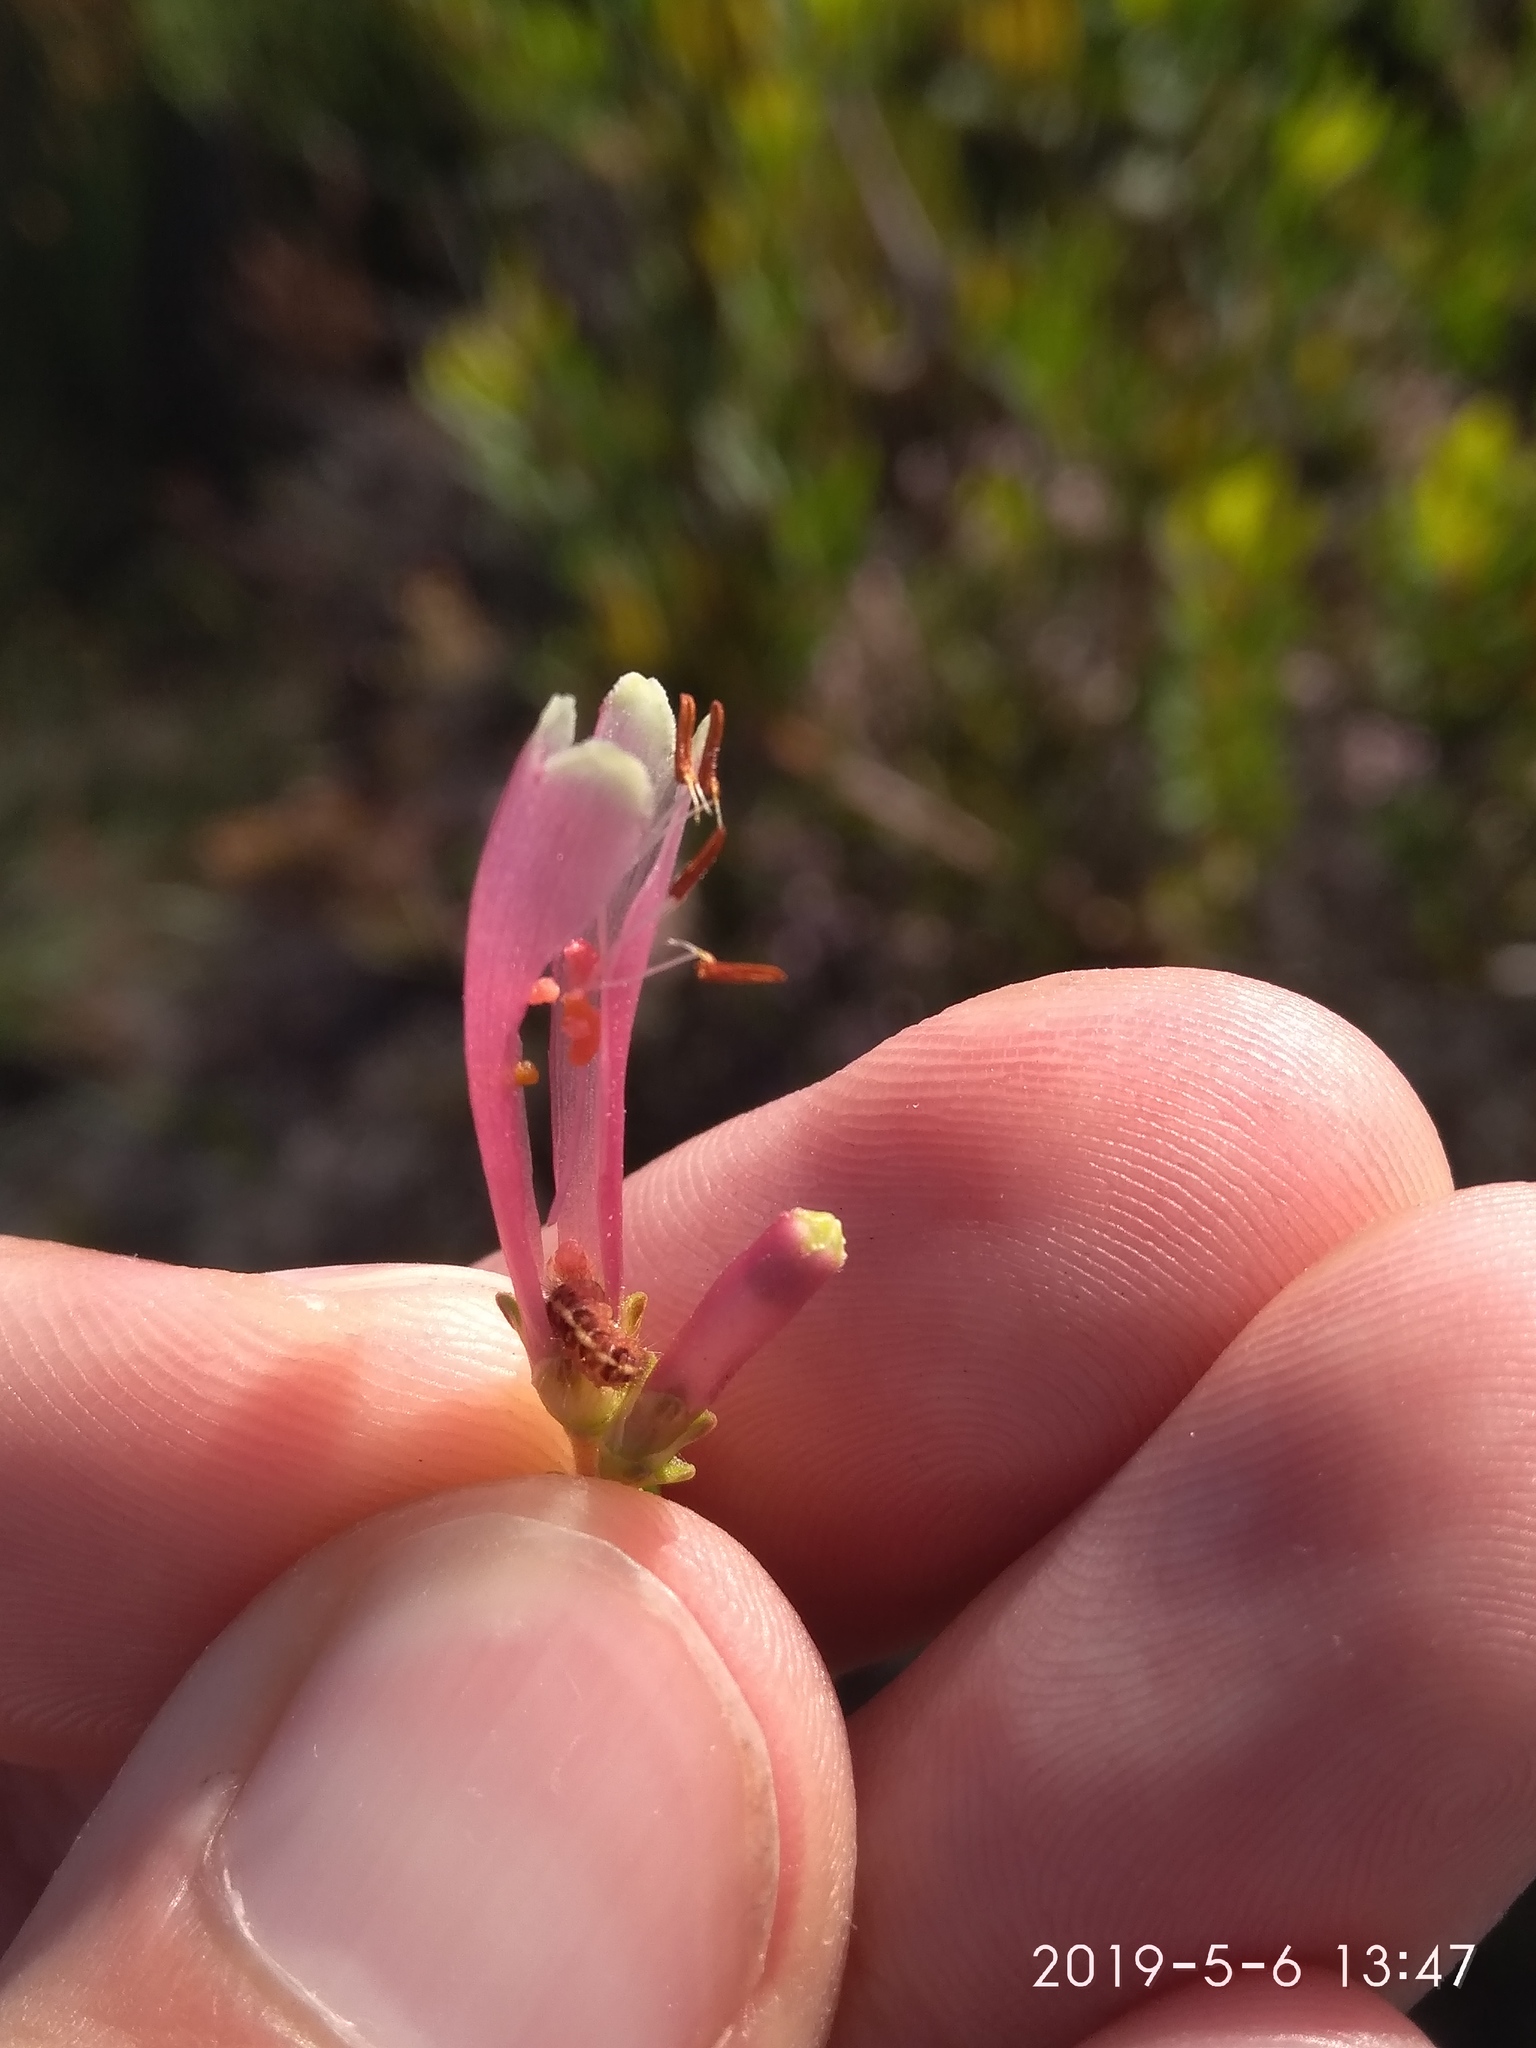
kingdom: Animalia
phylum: Arthropoda
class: Insecta
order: Lepidoptera
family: Nolidae
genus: Nolidia
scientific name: Nolidia unipuncta
